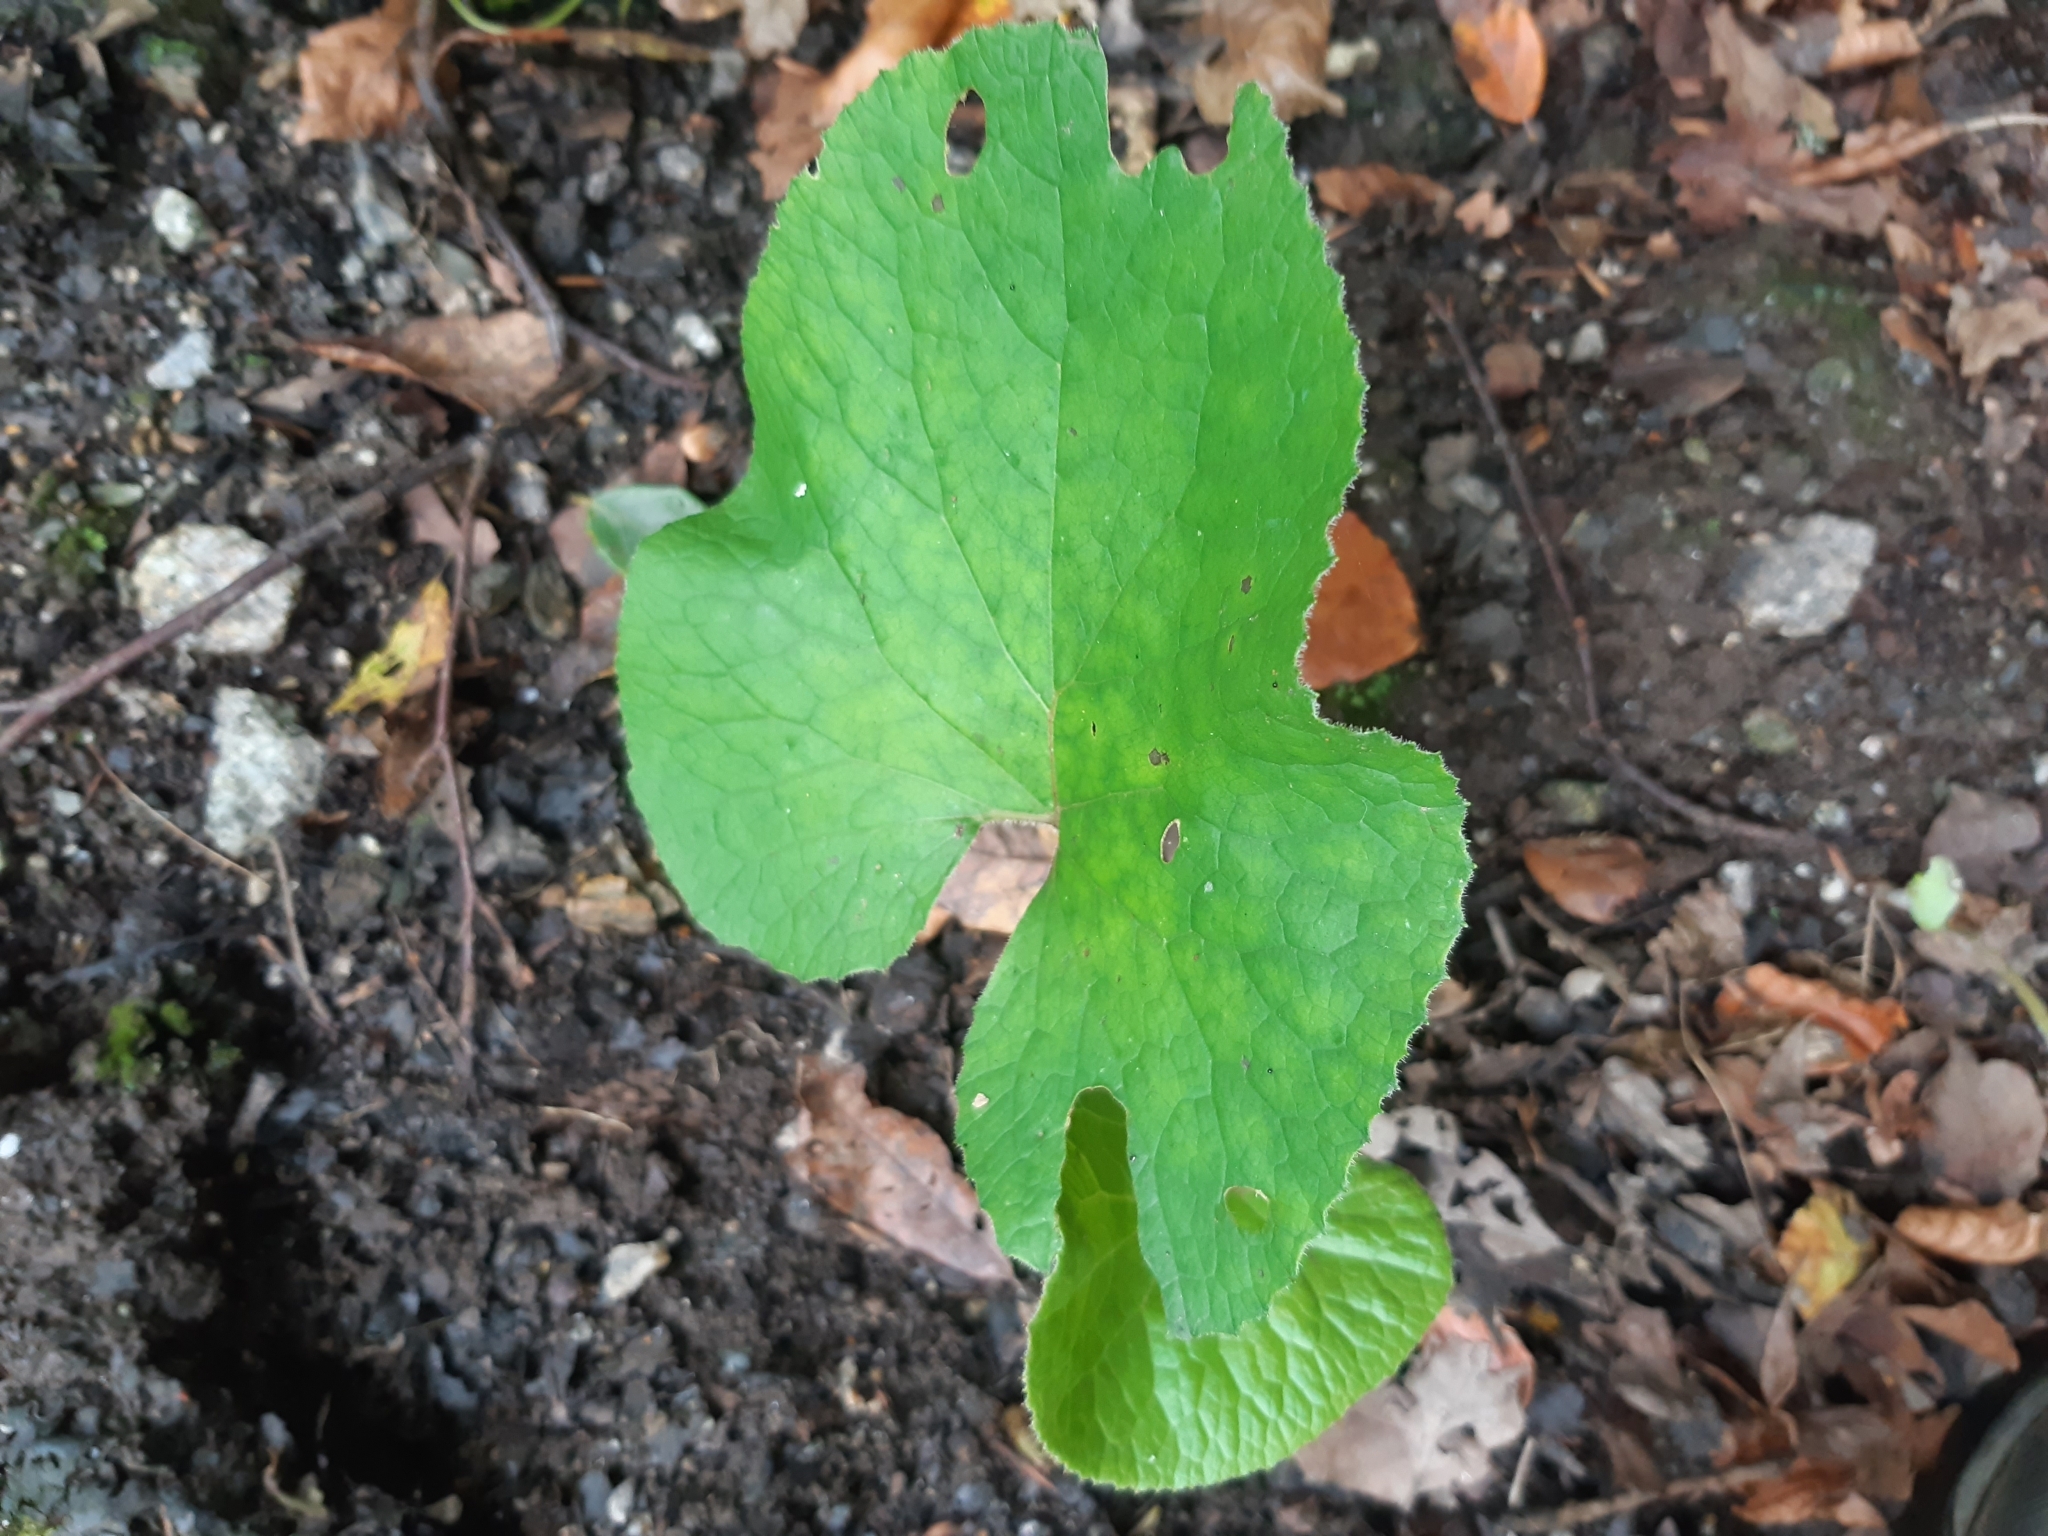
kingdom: Plantae
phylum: Tracheophyta
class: Magnoliopsida
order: Asterales
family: Asteraceae
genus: Petasites
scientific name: Petasites pyrenaicus
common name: Winter heliotrope
